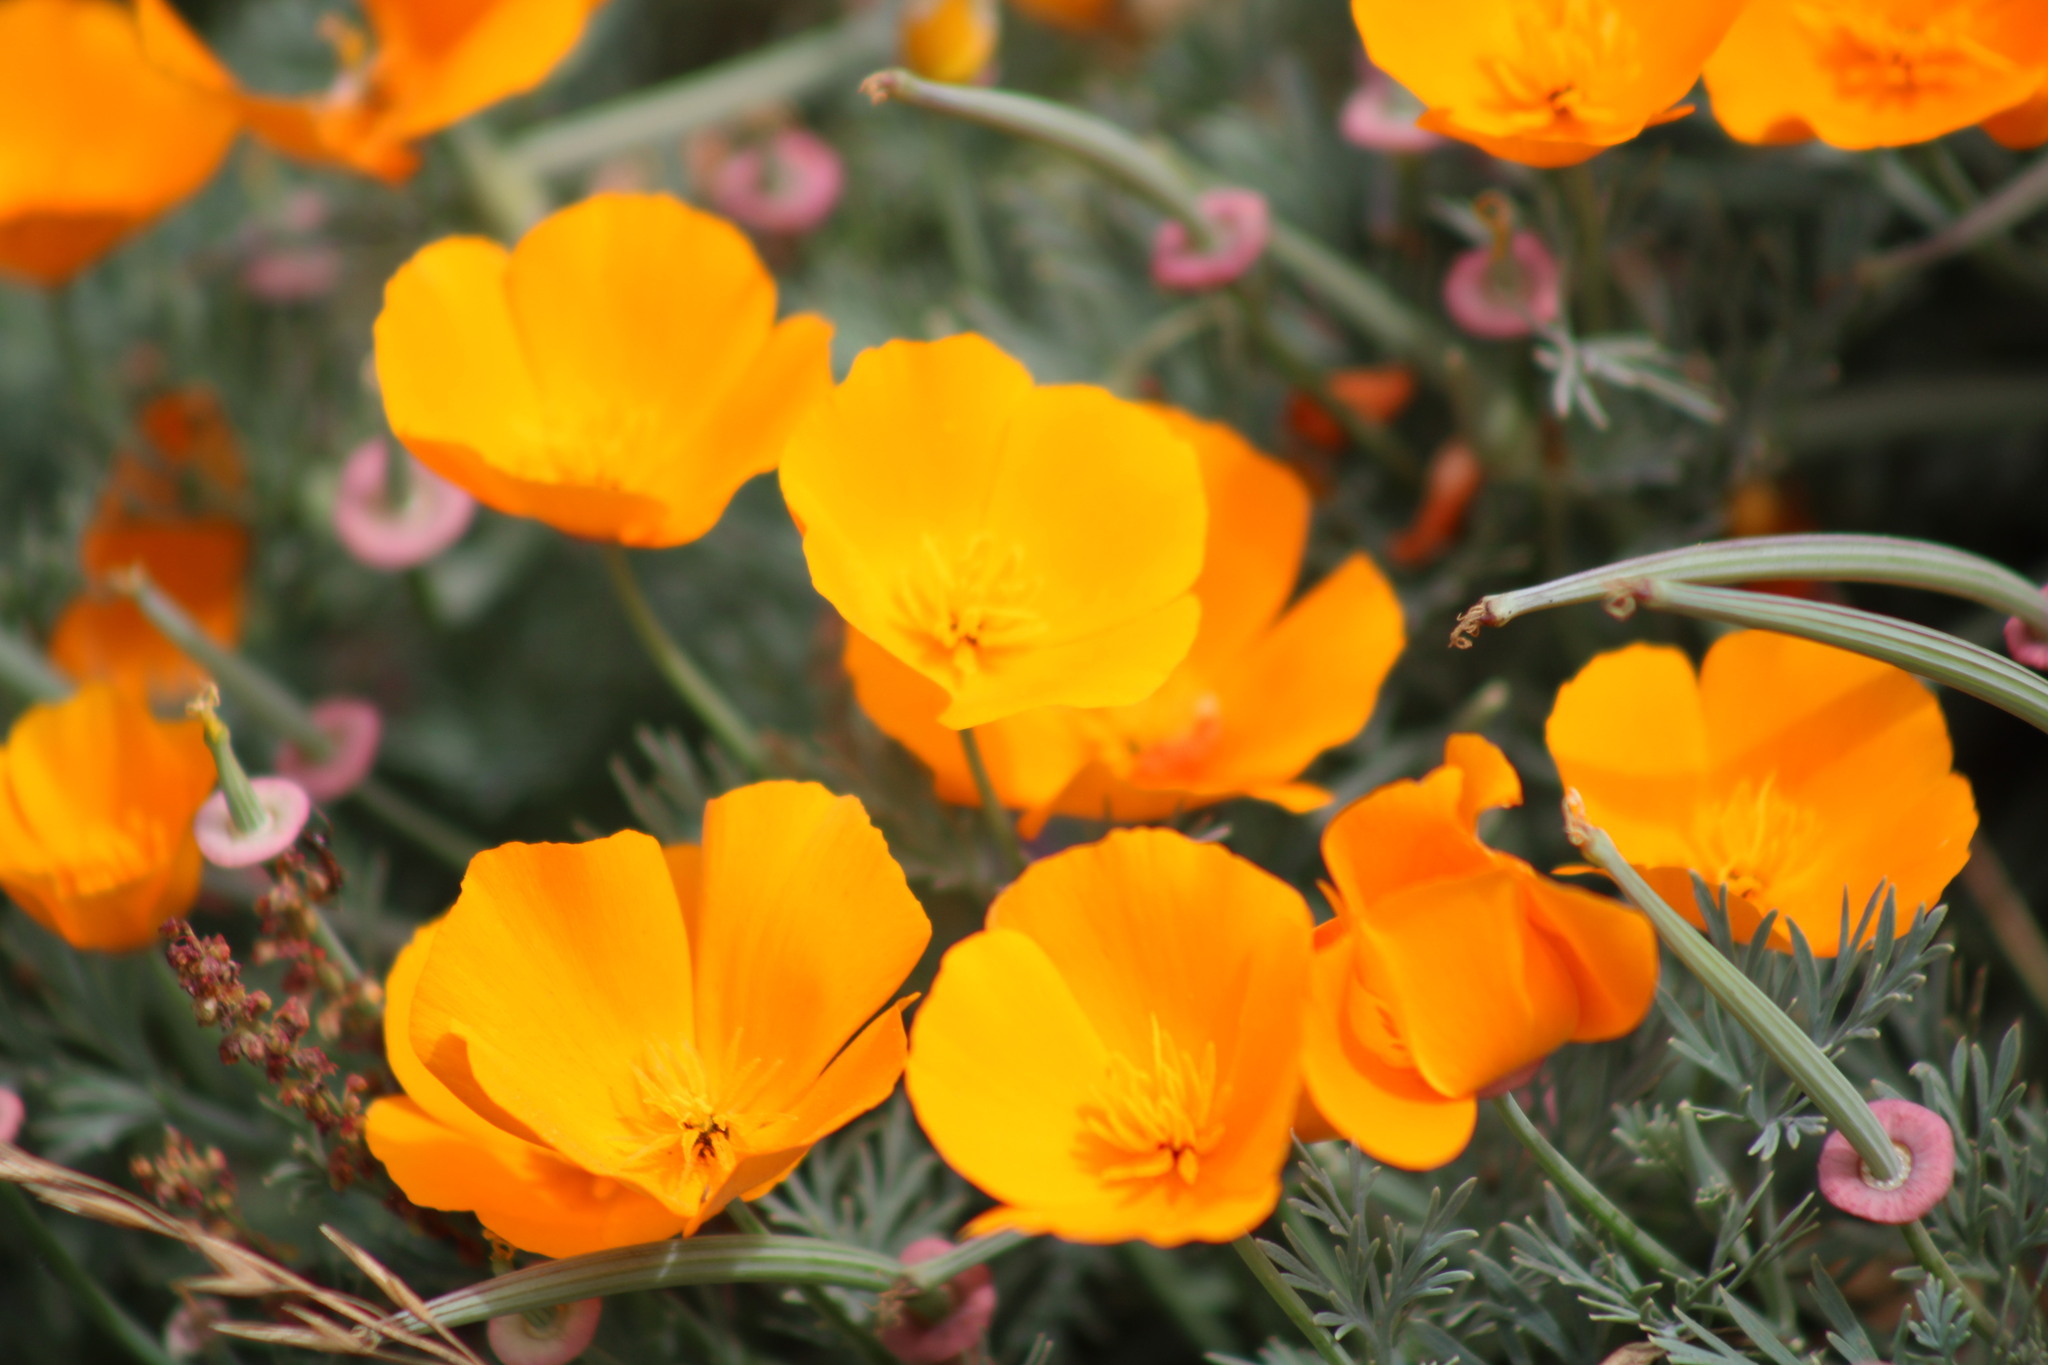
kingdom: Plantae
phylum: Tracheophyta
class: Magnoliopsida
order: Ranunculales
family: Papaveraceae
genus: Eschscholzia
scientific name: Eschscholzia californica
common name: California poppy
